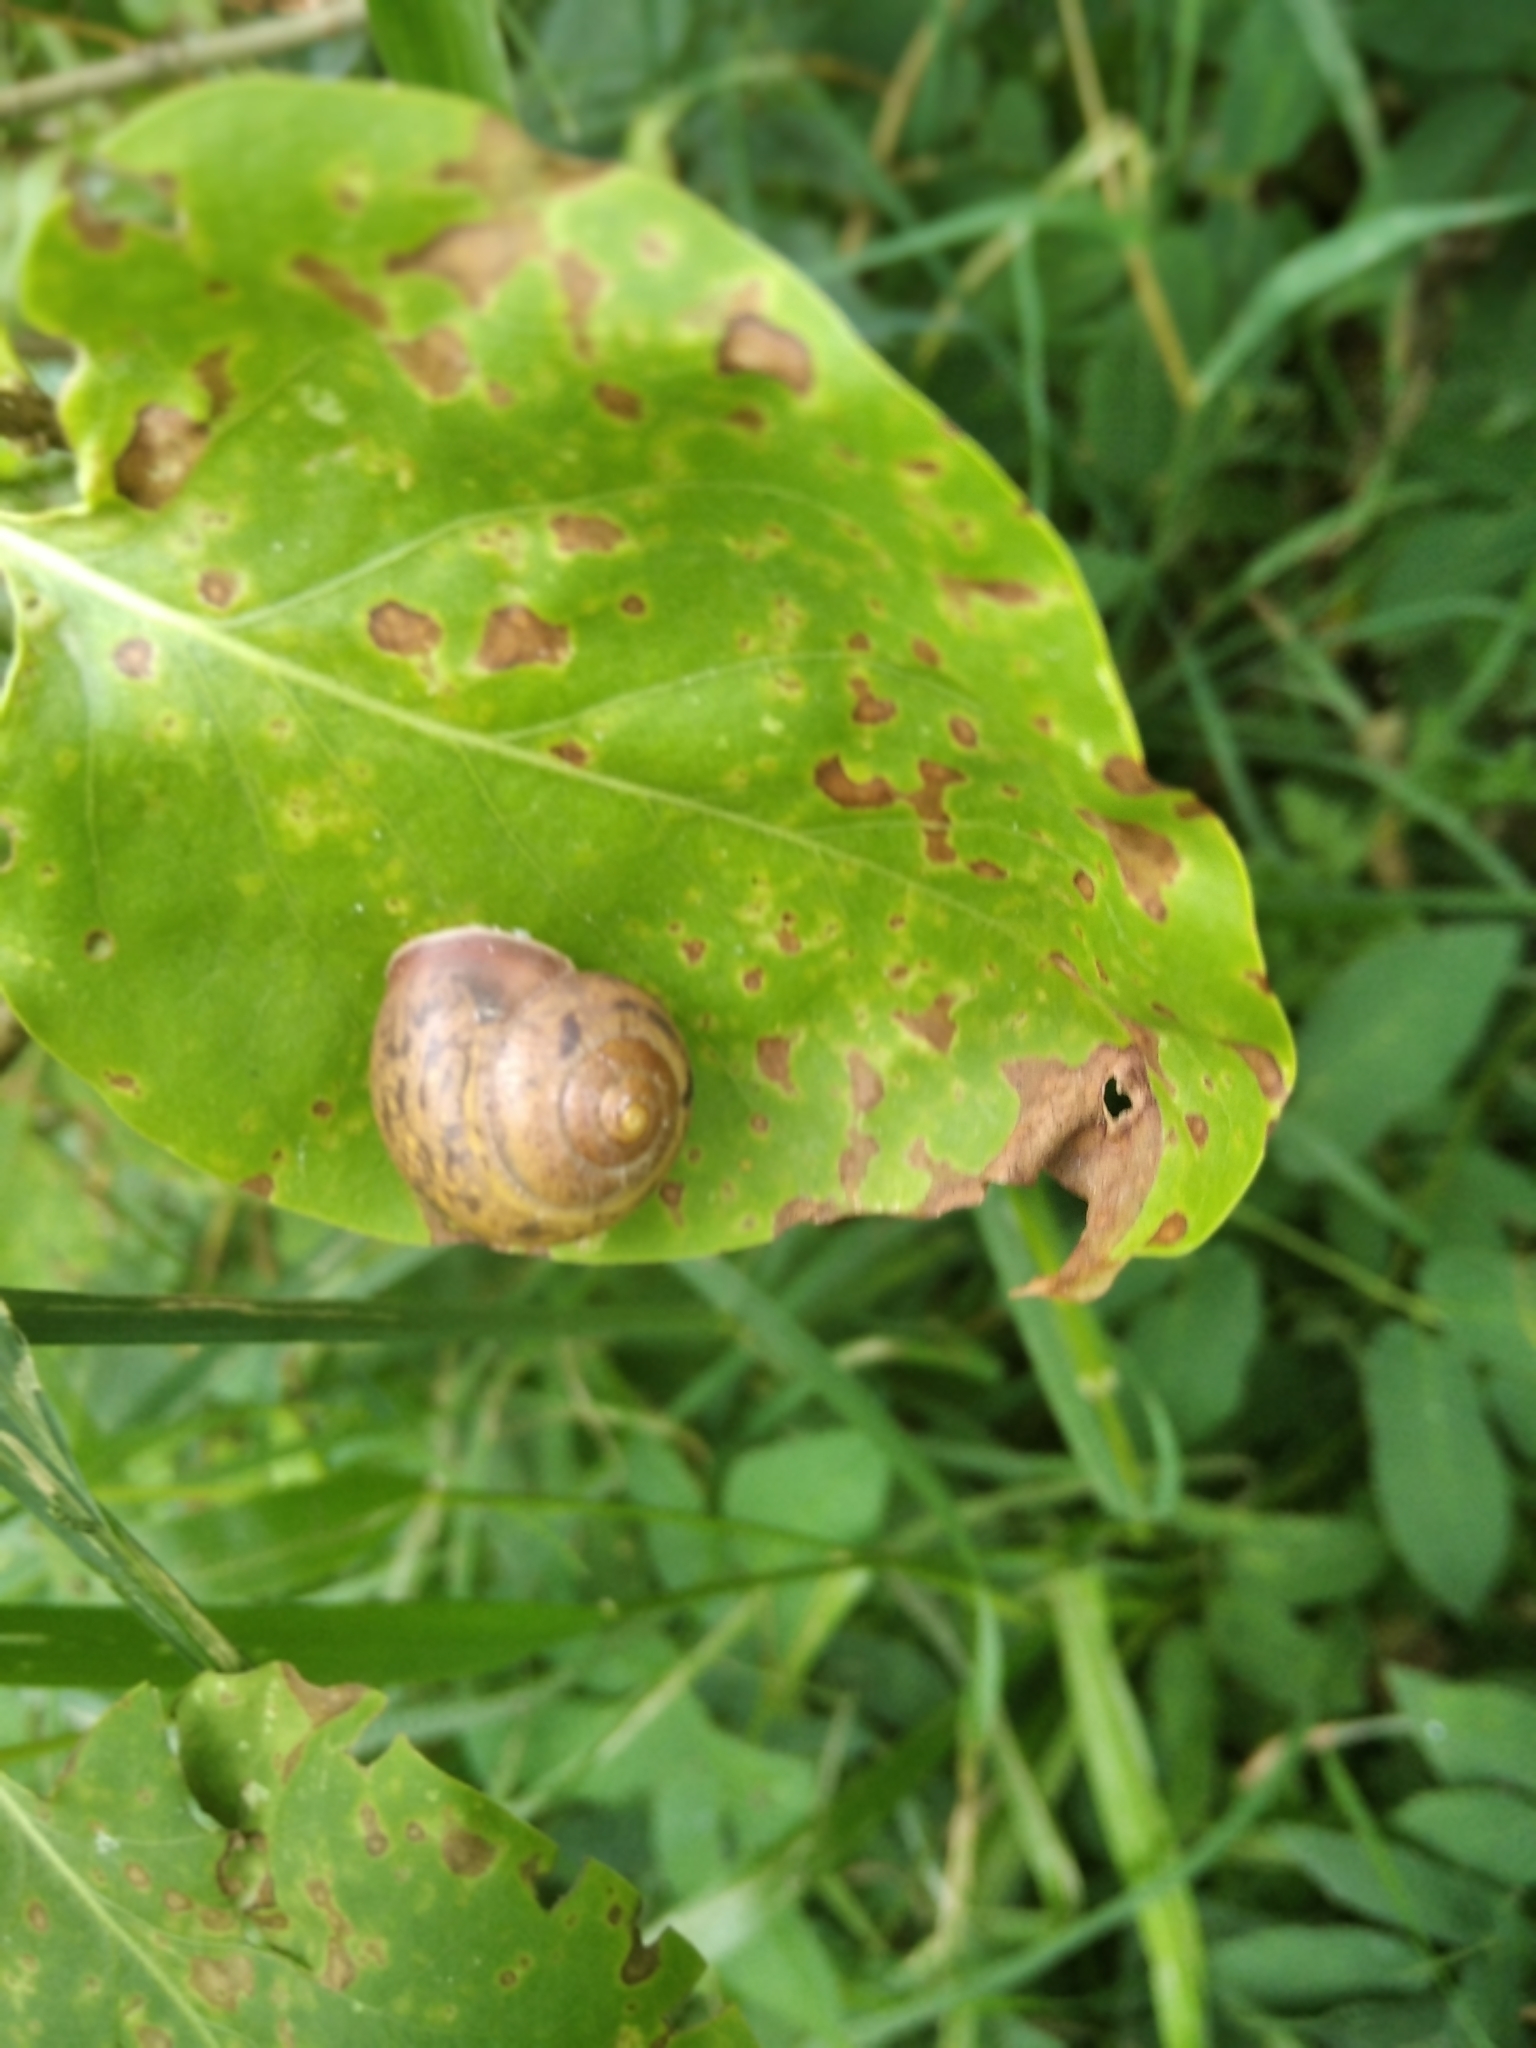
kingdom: Animalia
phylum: Mollusca
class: Gastropoda
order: Stylommatophora
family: Camaenidae
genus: Fruticicola
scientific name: Fruticicola fruticum
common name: Bush snail
